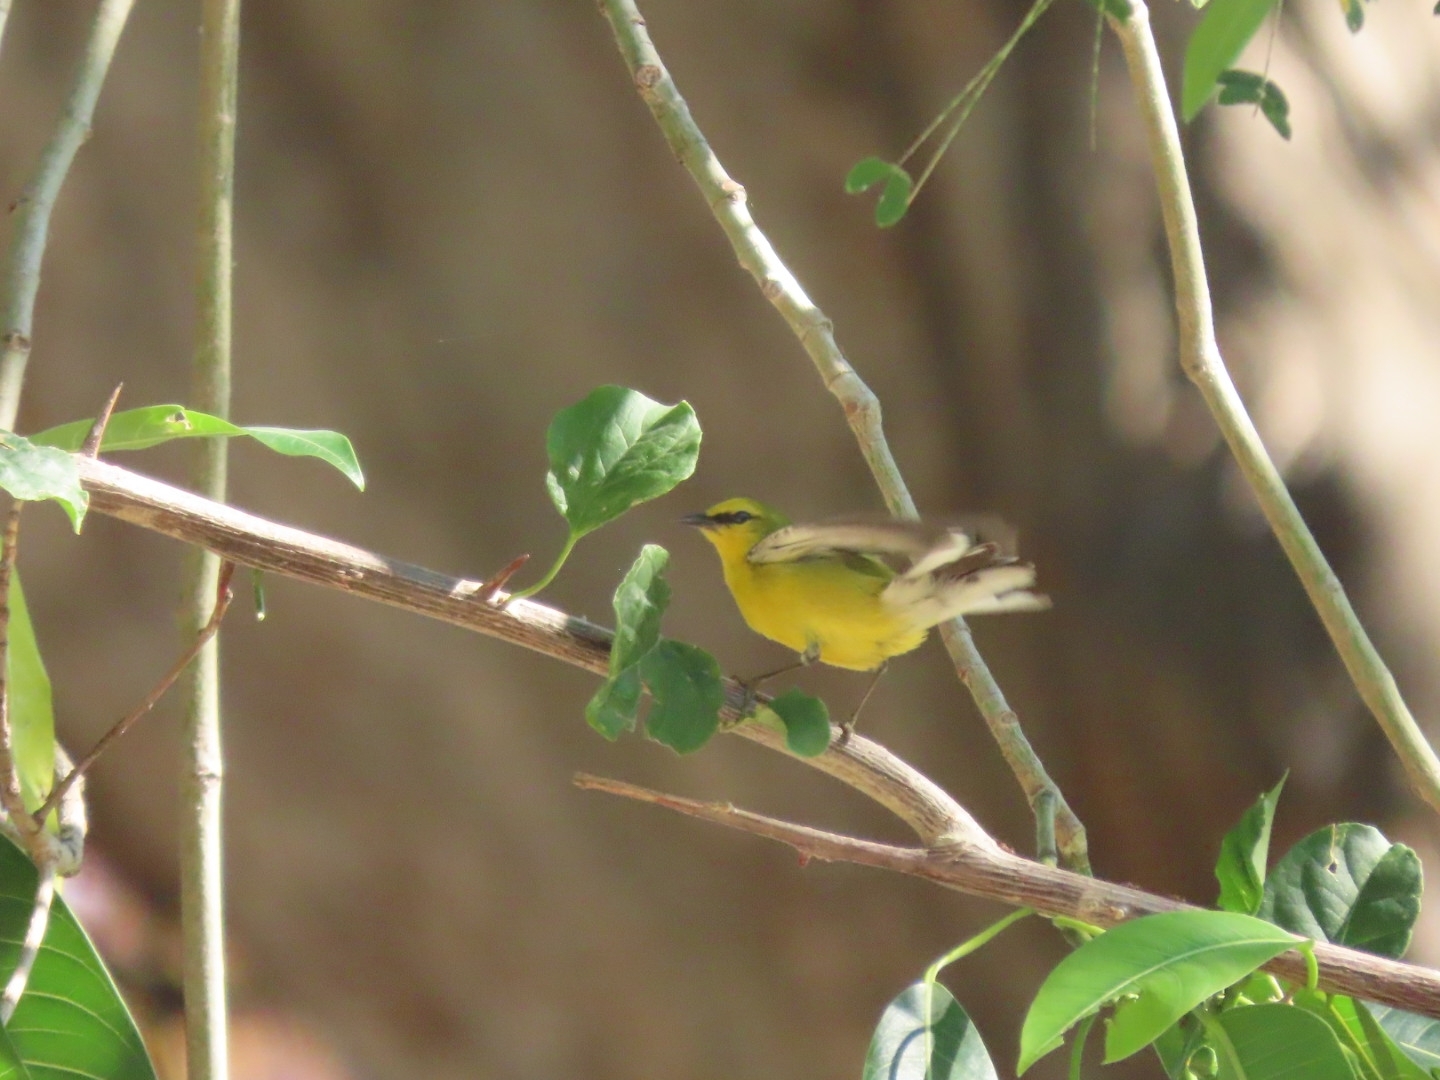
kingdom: Animalia
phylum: Chordata
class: Aves
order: Passeriformes
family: Parulidae
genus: Vermivora
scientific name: Vermivora cyanoptera
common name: Blue-winged warbler
